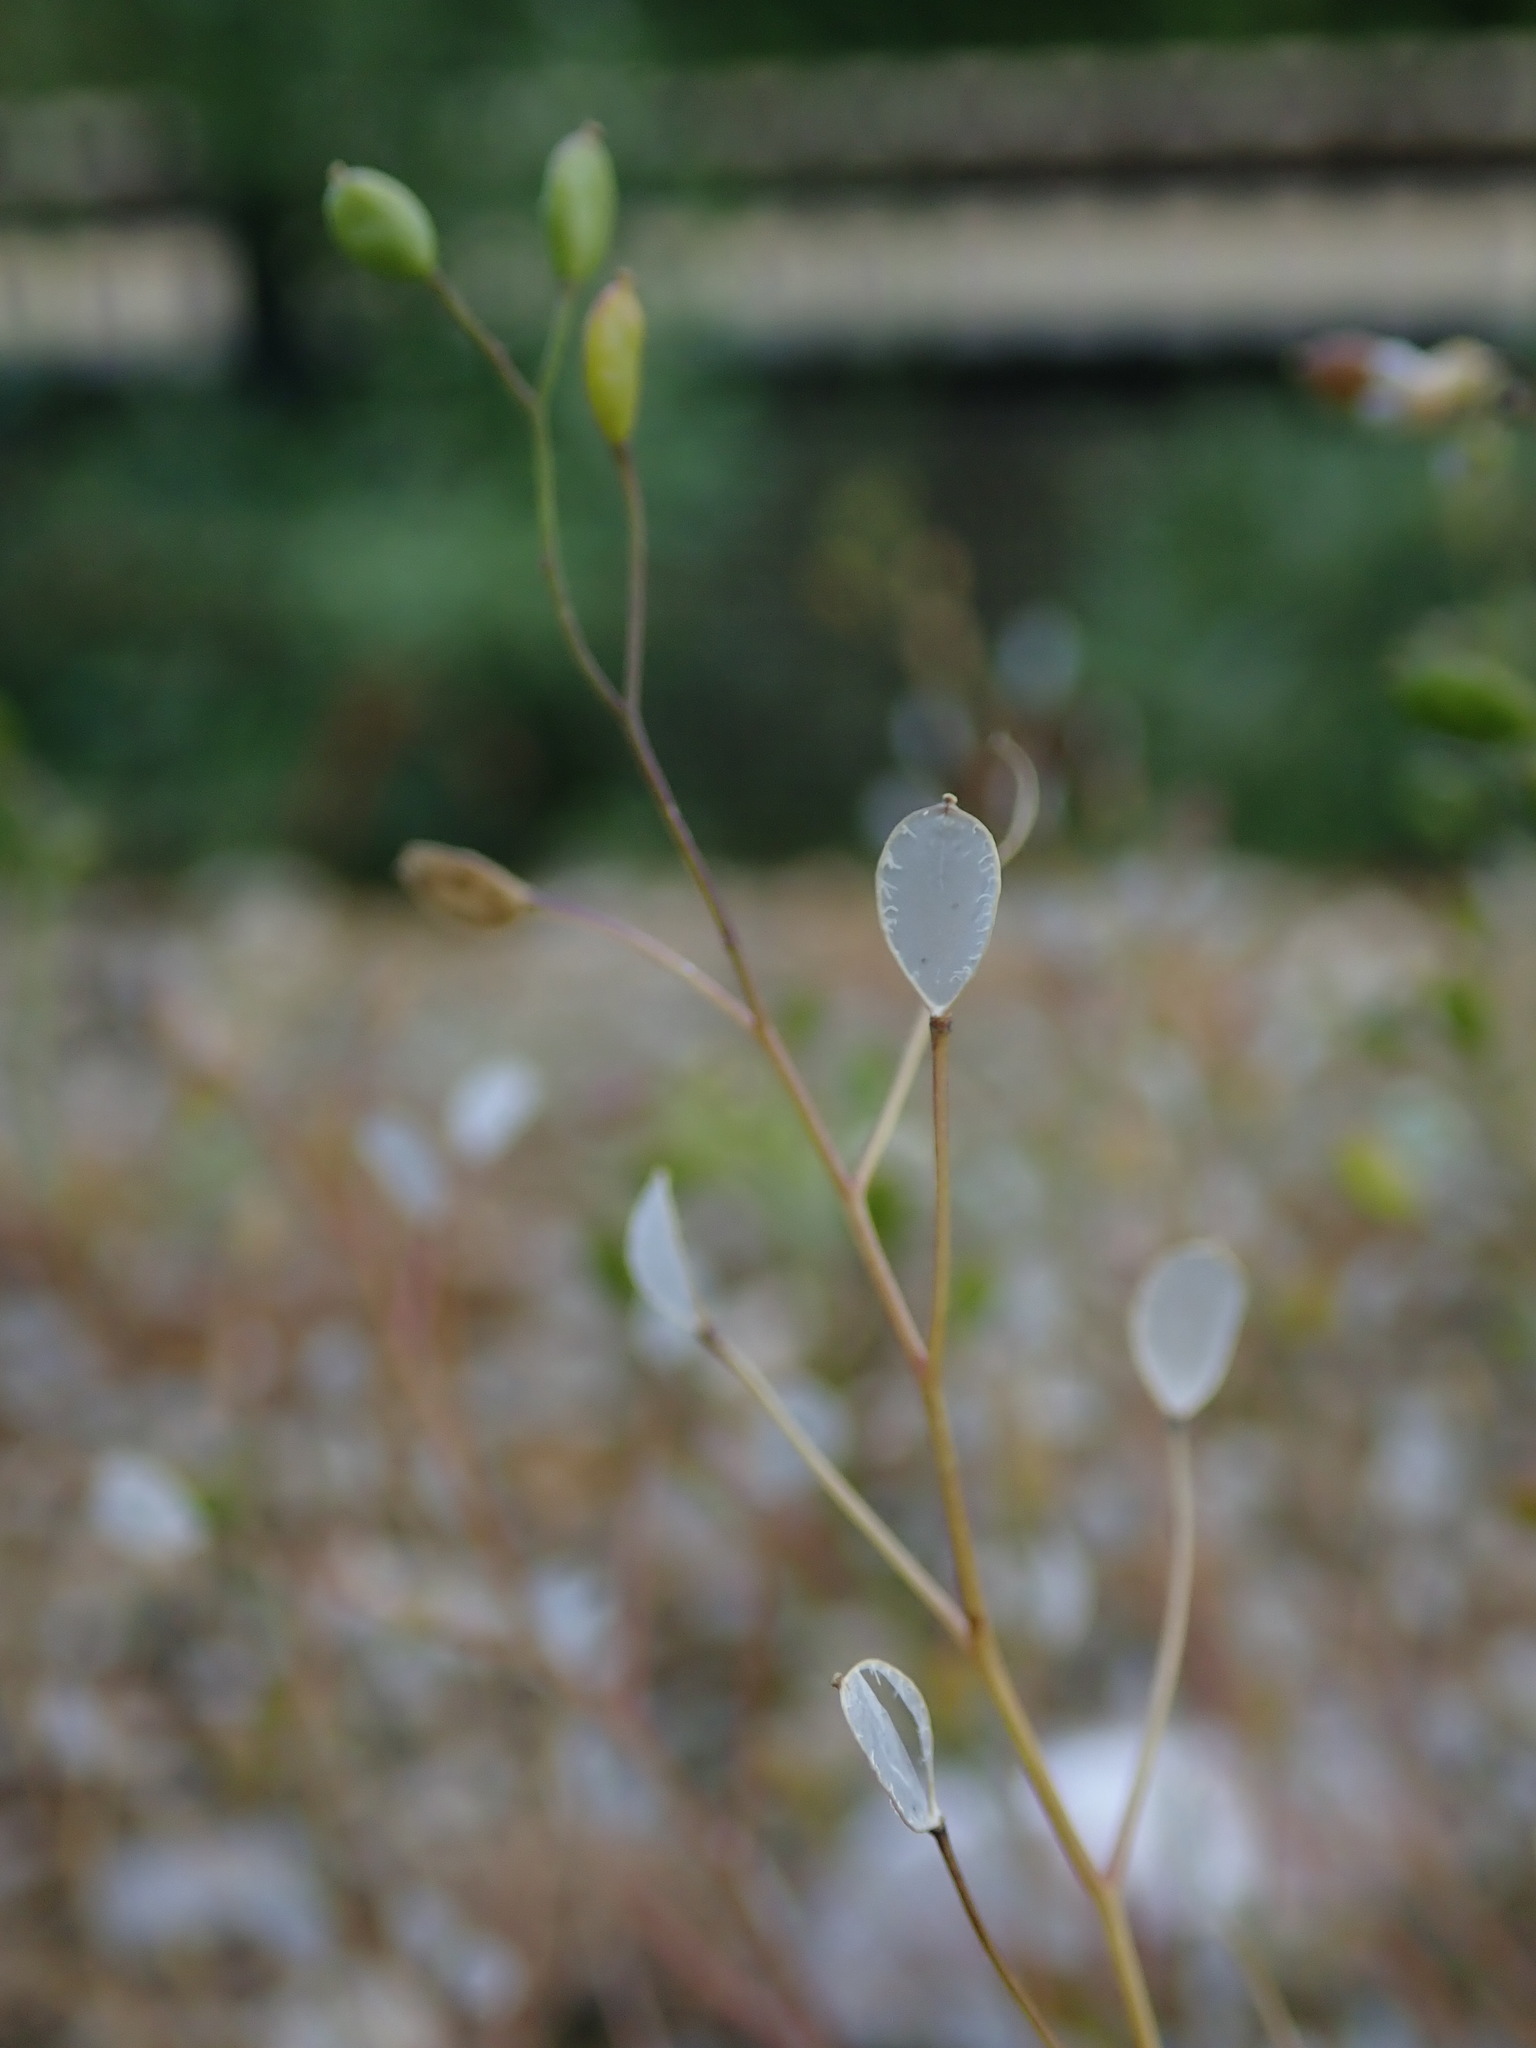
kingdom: Plantae
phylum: Tracheophyta
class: Magnoliopsida
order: Brassicales
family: Brassicaceae
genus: Draba
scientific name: Draba verna
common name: Spring draba
